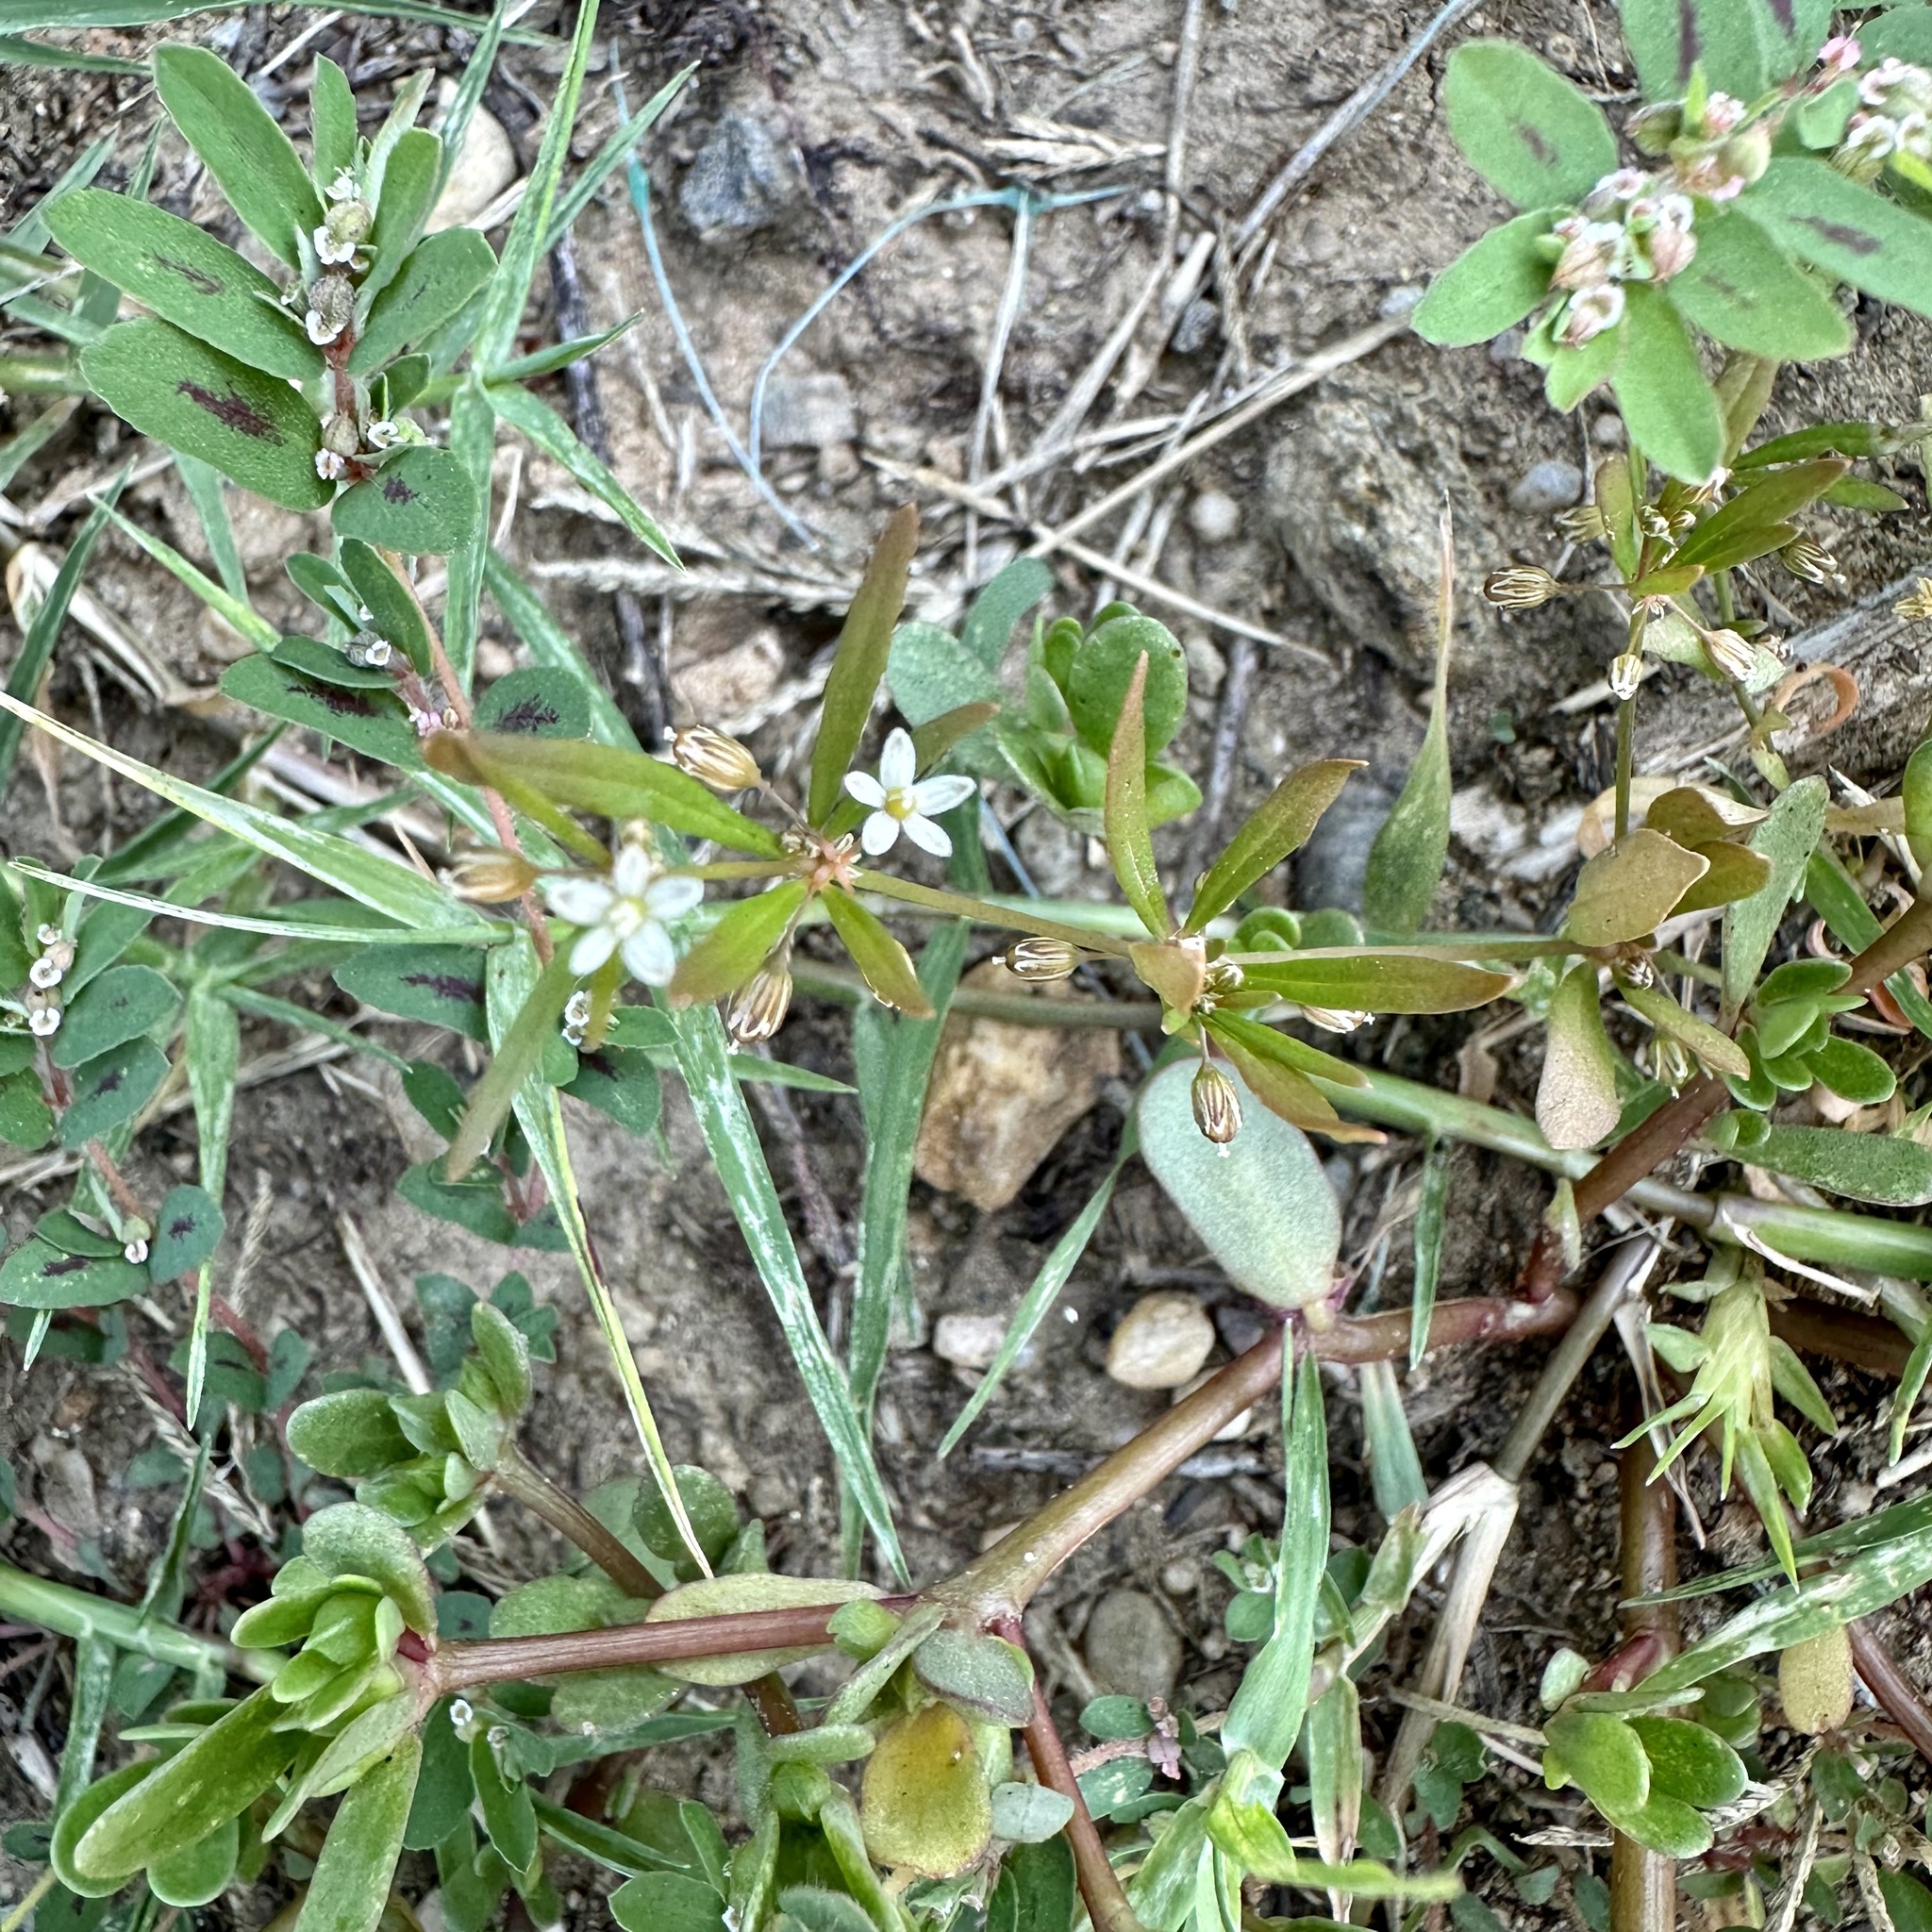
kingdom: Plantae
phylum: Tracheophyta
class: Magnoliopsida
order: Caryophyllales
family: Molluginaceae
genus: Mollugo
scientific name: Mollugo verticillata
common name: Green carpetweed
